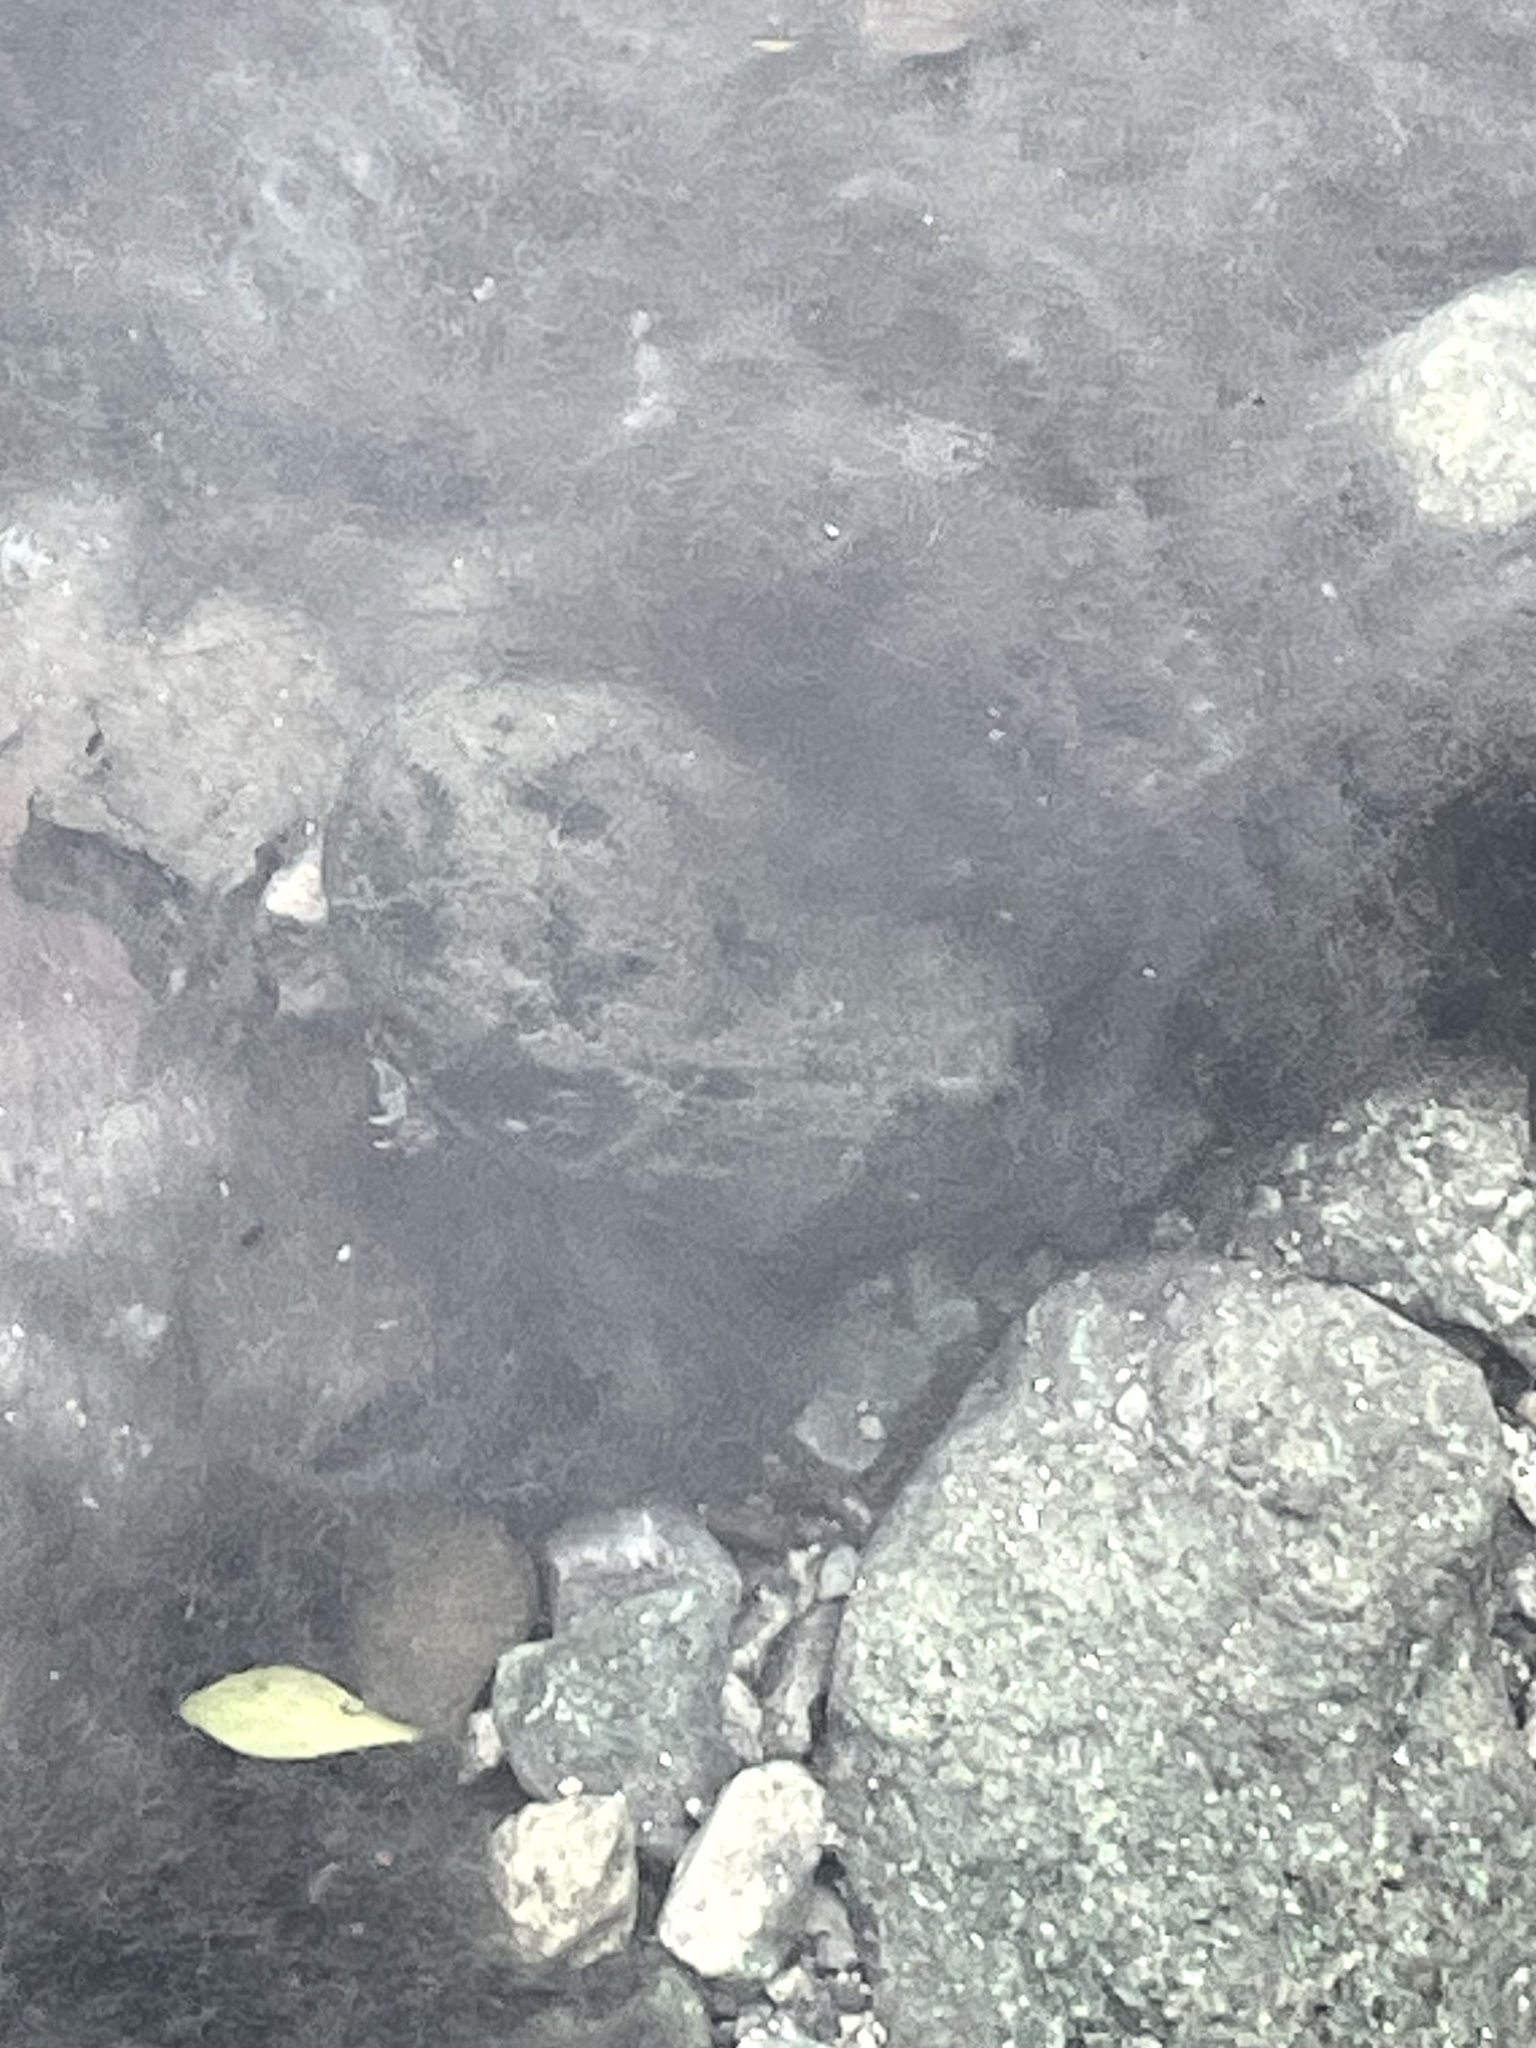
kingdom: Animalia
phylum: Chordata
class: Testudines
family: Kinosternidae
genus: Sternotherus
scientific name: Sternotherus odoratus
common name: Common musk turtle
